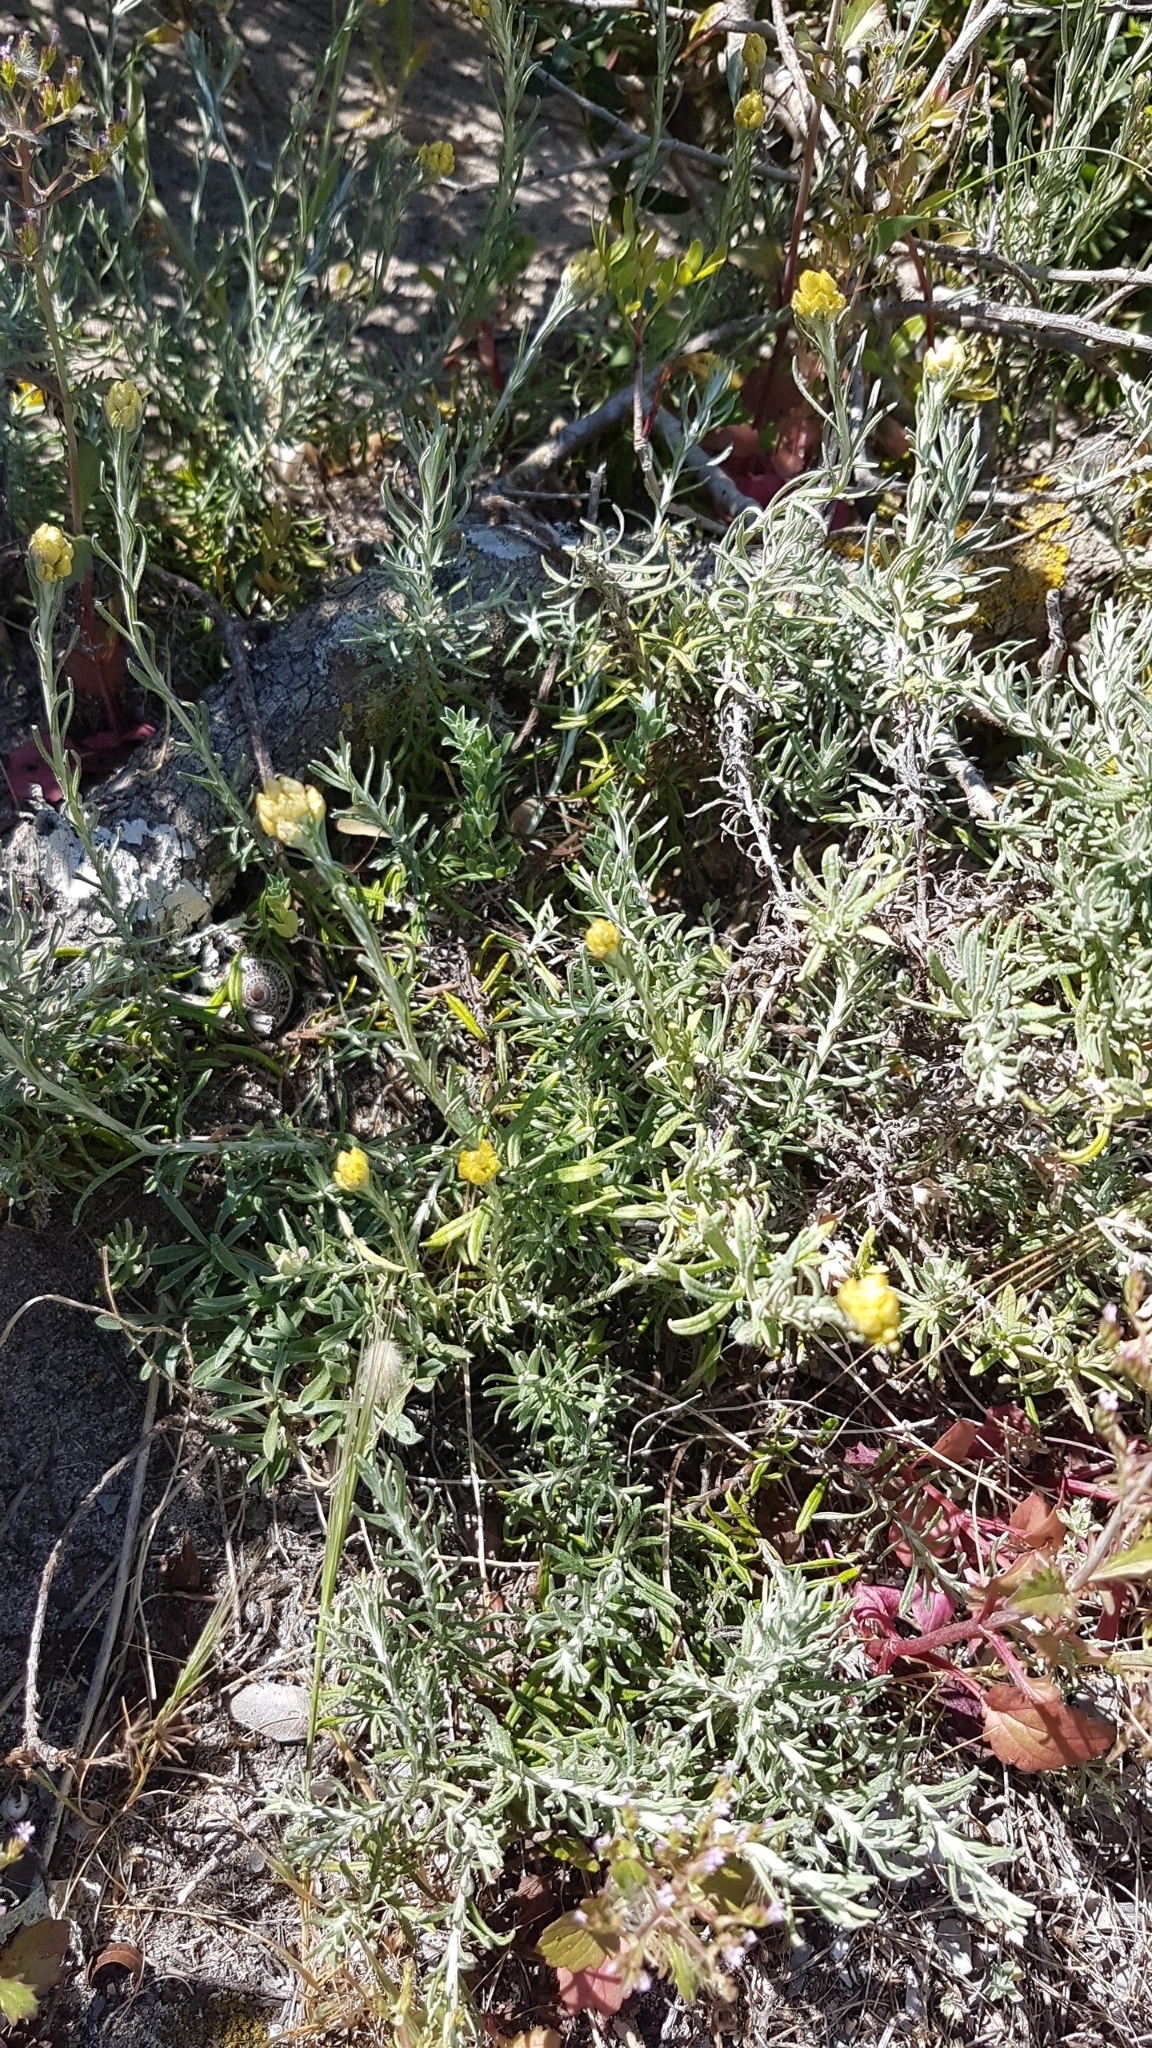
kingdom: Plantae
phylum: Tracheophyta
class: Magnoliopsida
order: Asterales
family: Asteraceae
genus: Helichrysum
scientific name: Helichrysum stoechas
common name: Goldilocks
